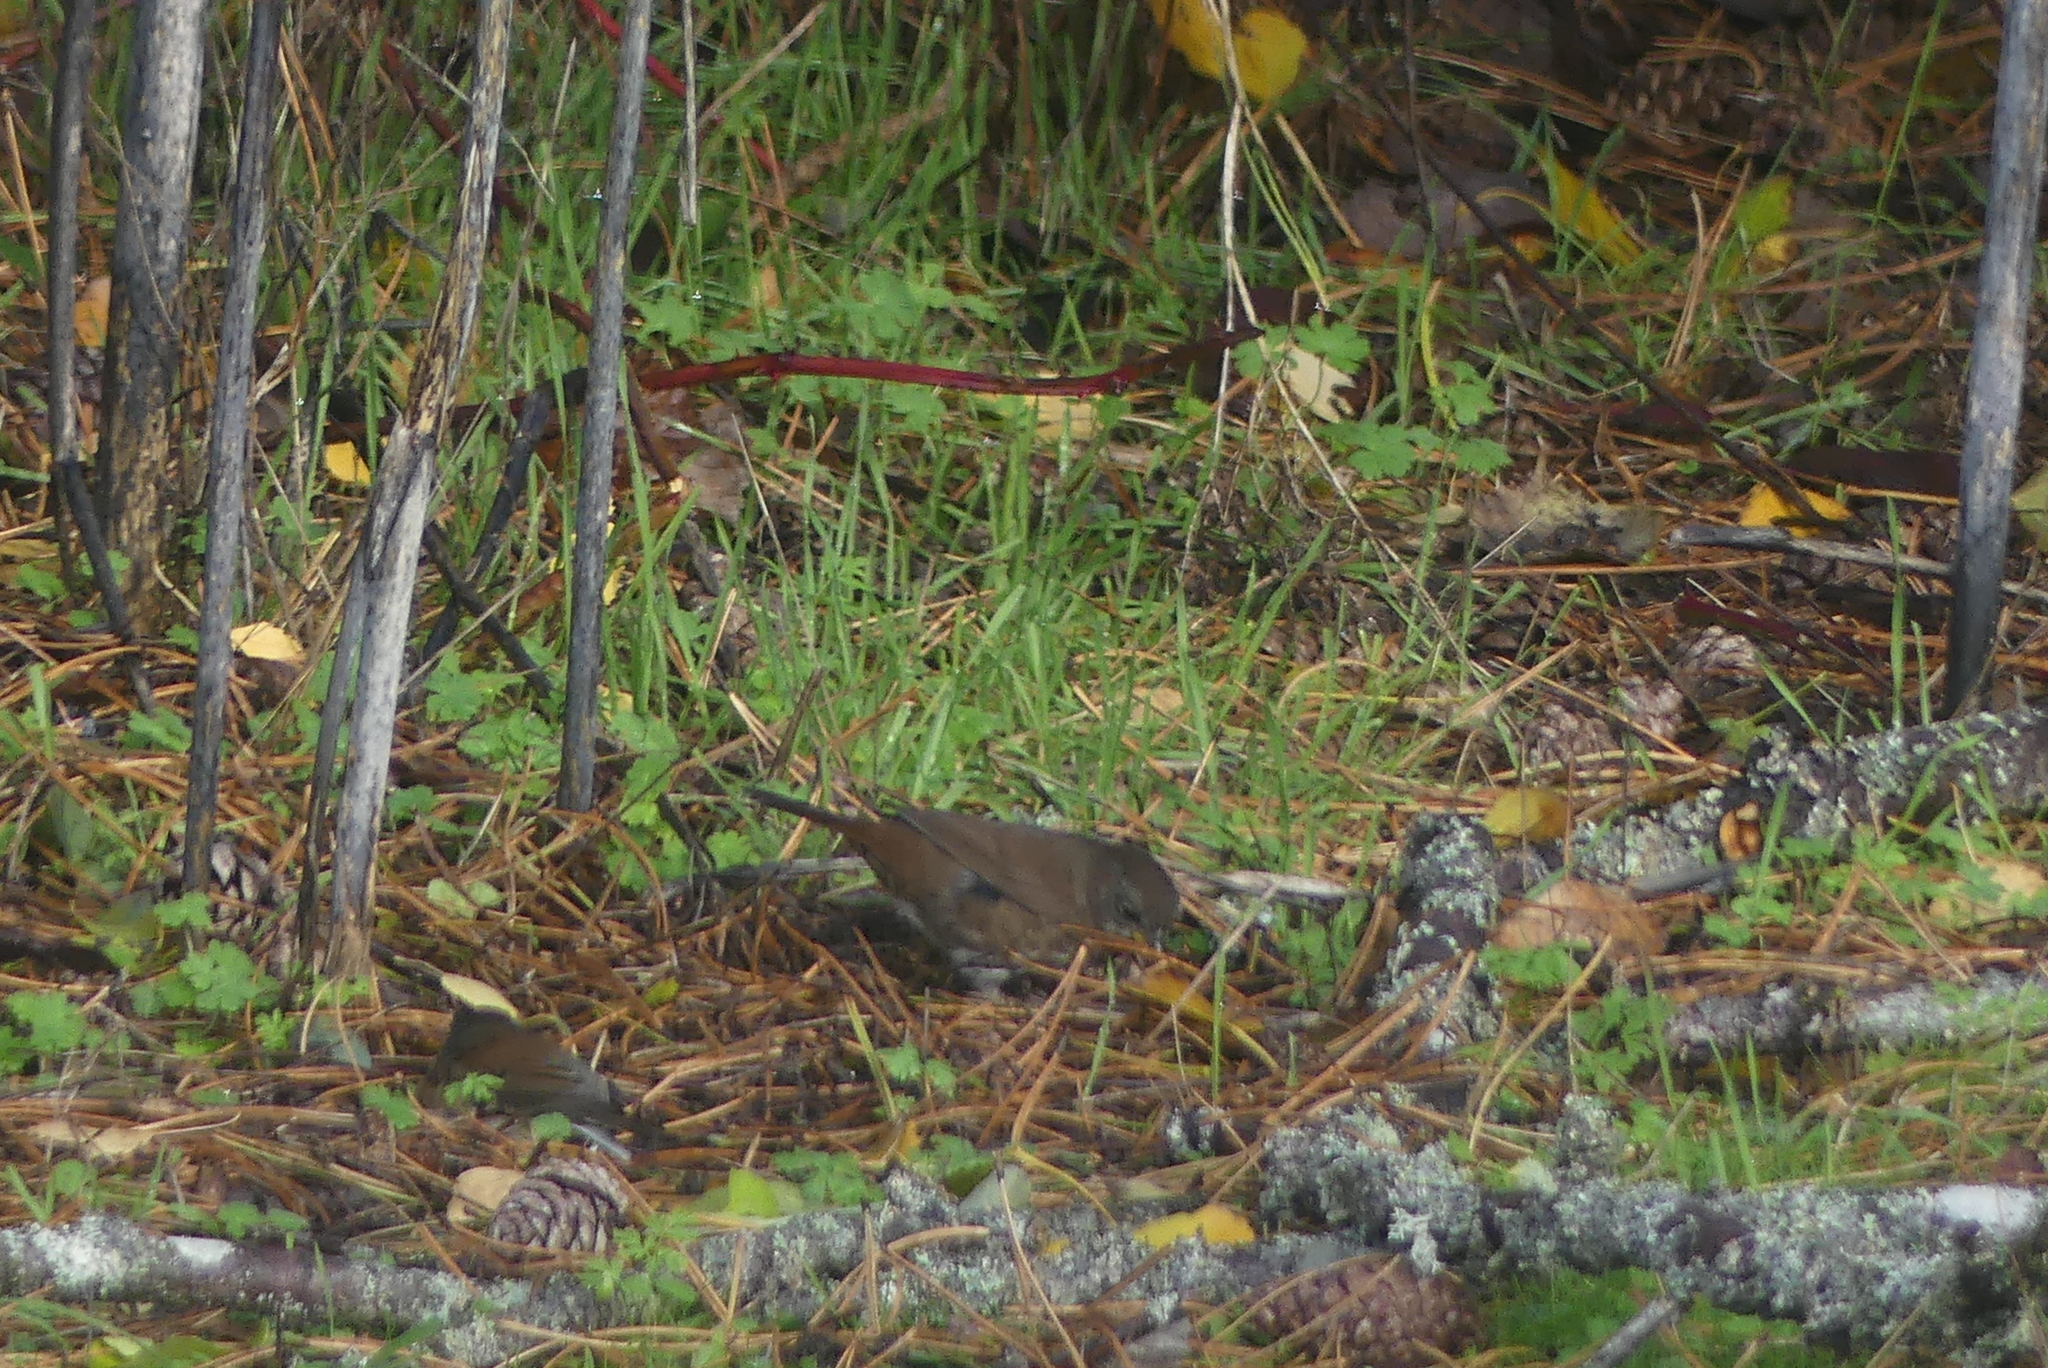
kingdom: Animalia
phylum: Chordata
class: Aves
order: Passeriformes
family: Passerellidae
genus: Passerella
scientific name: Passerella iliaca
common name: Fox sparrow
